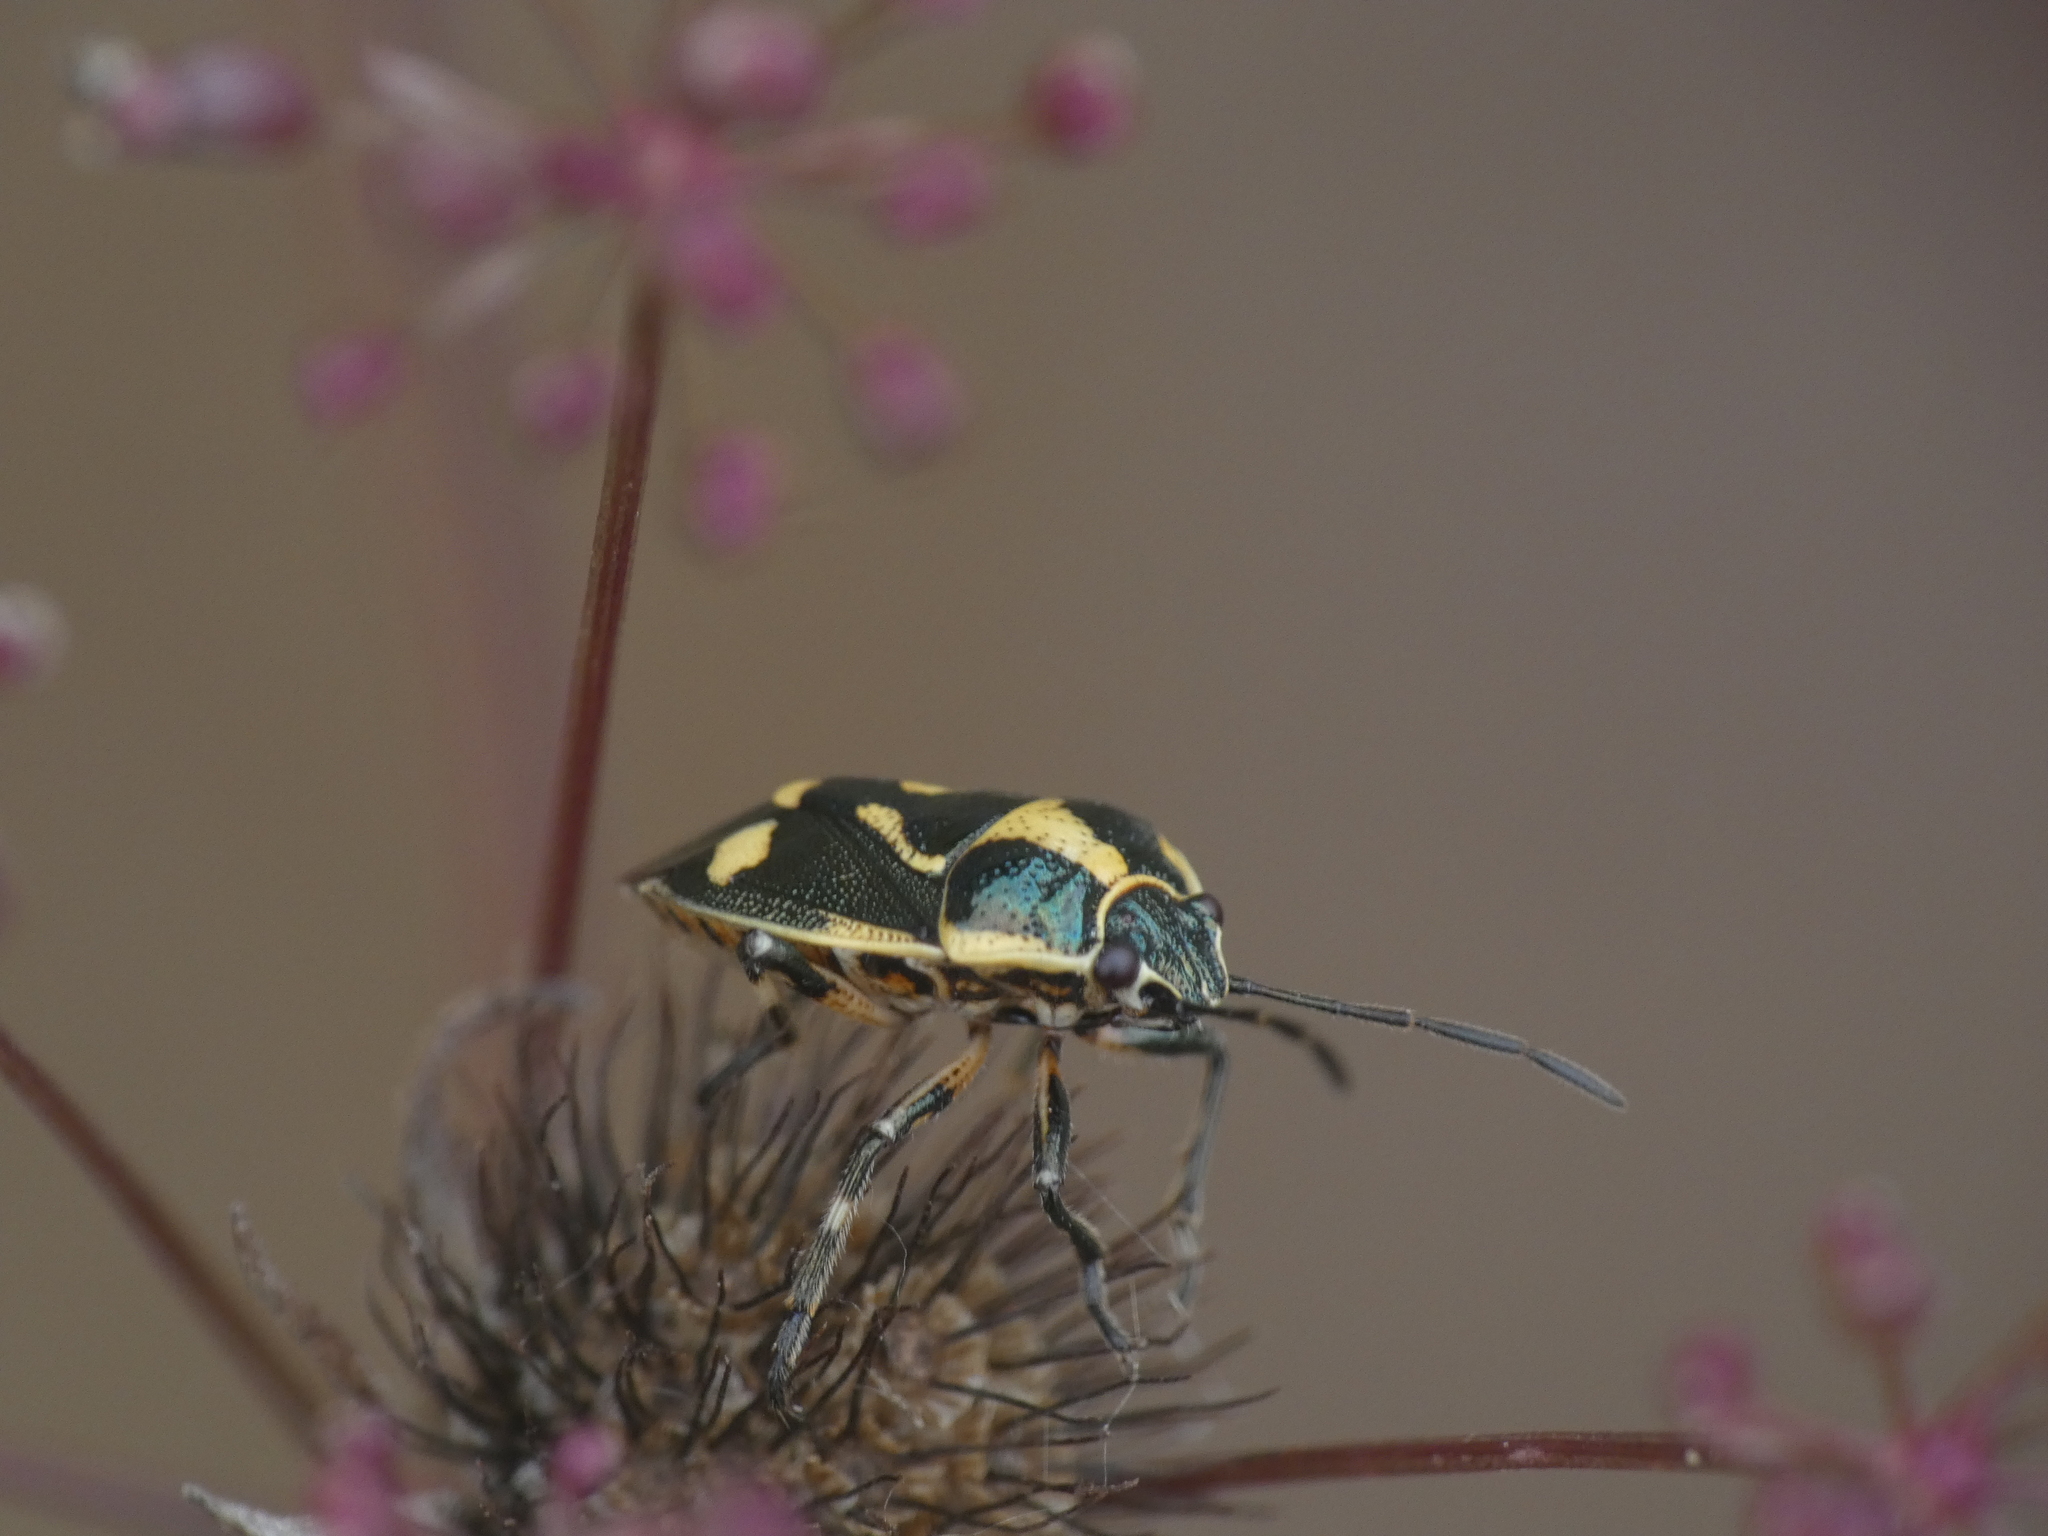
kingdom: Animalia
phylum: Arthropoda
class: Insecta
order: Hemiptera
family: Pentatomidae
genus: Eurydema
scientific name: Eurydema oleracea
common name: Cabbage bug
